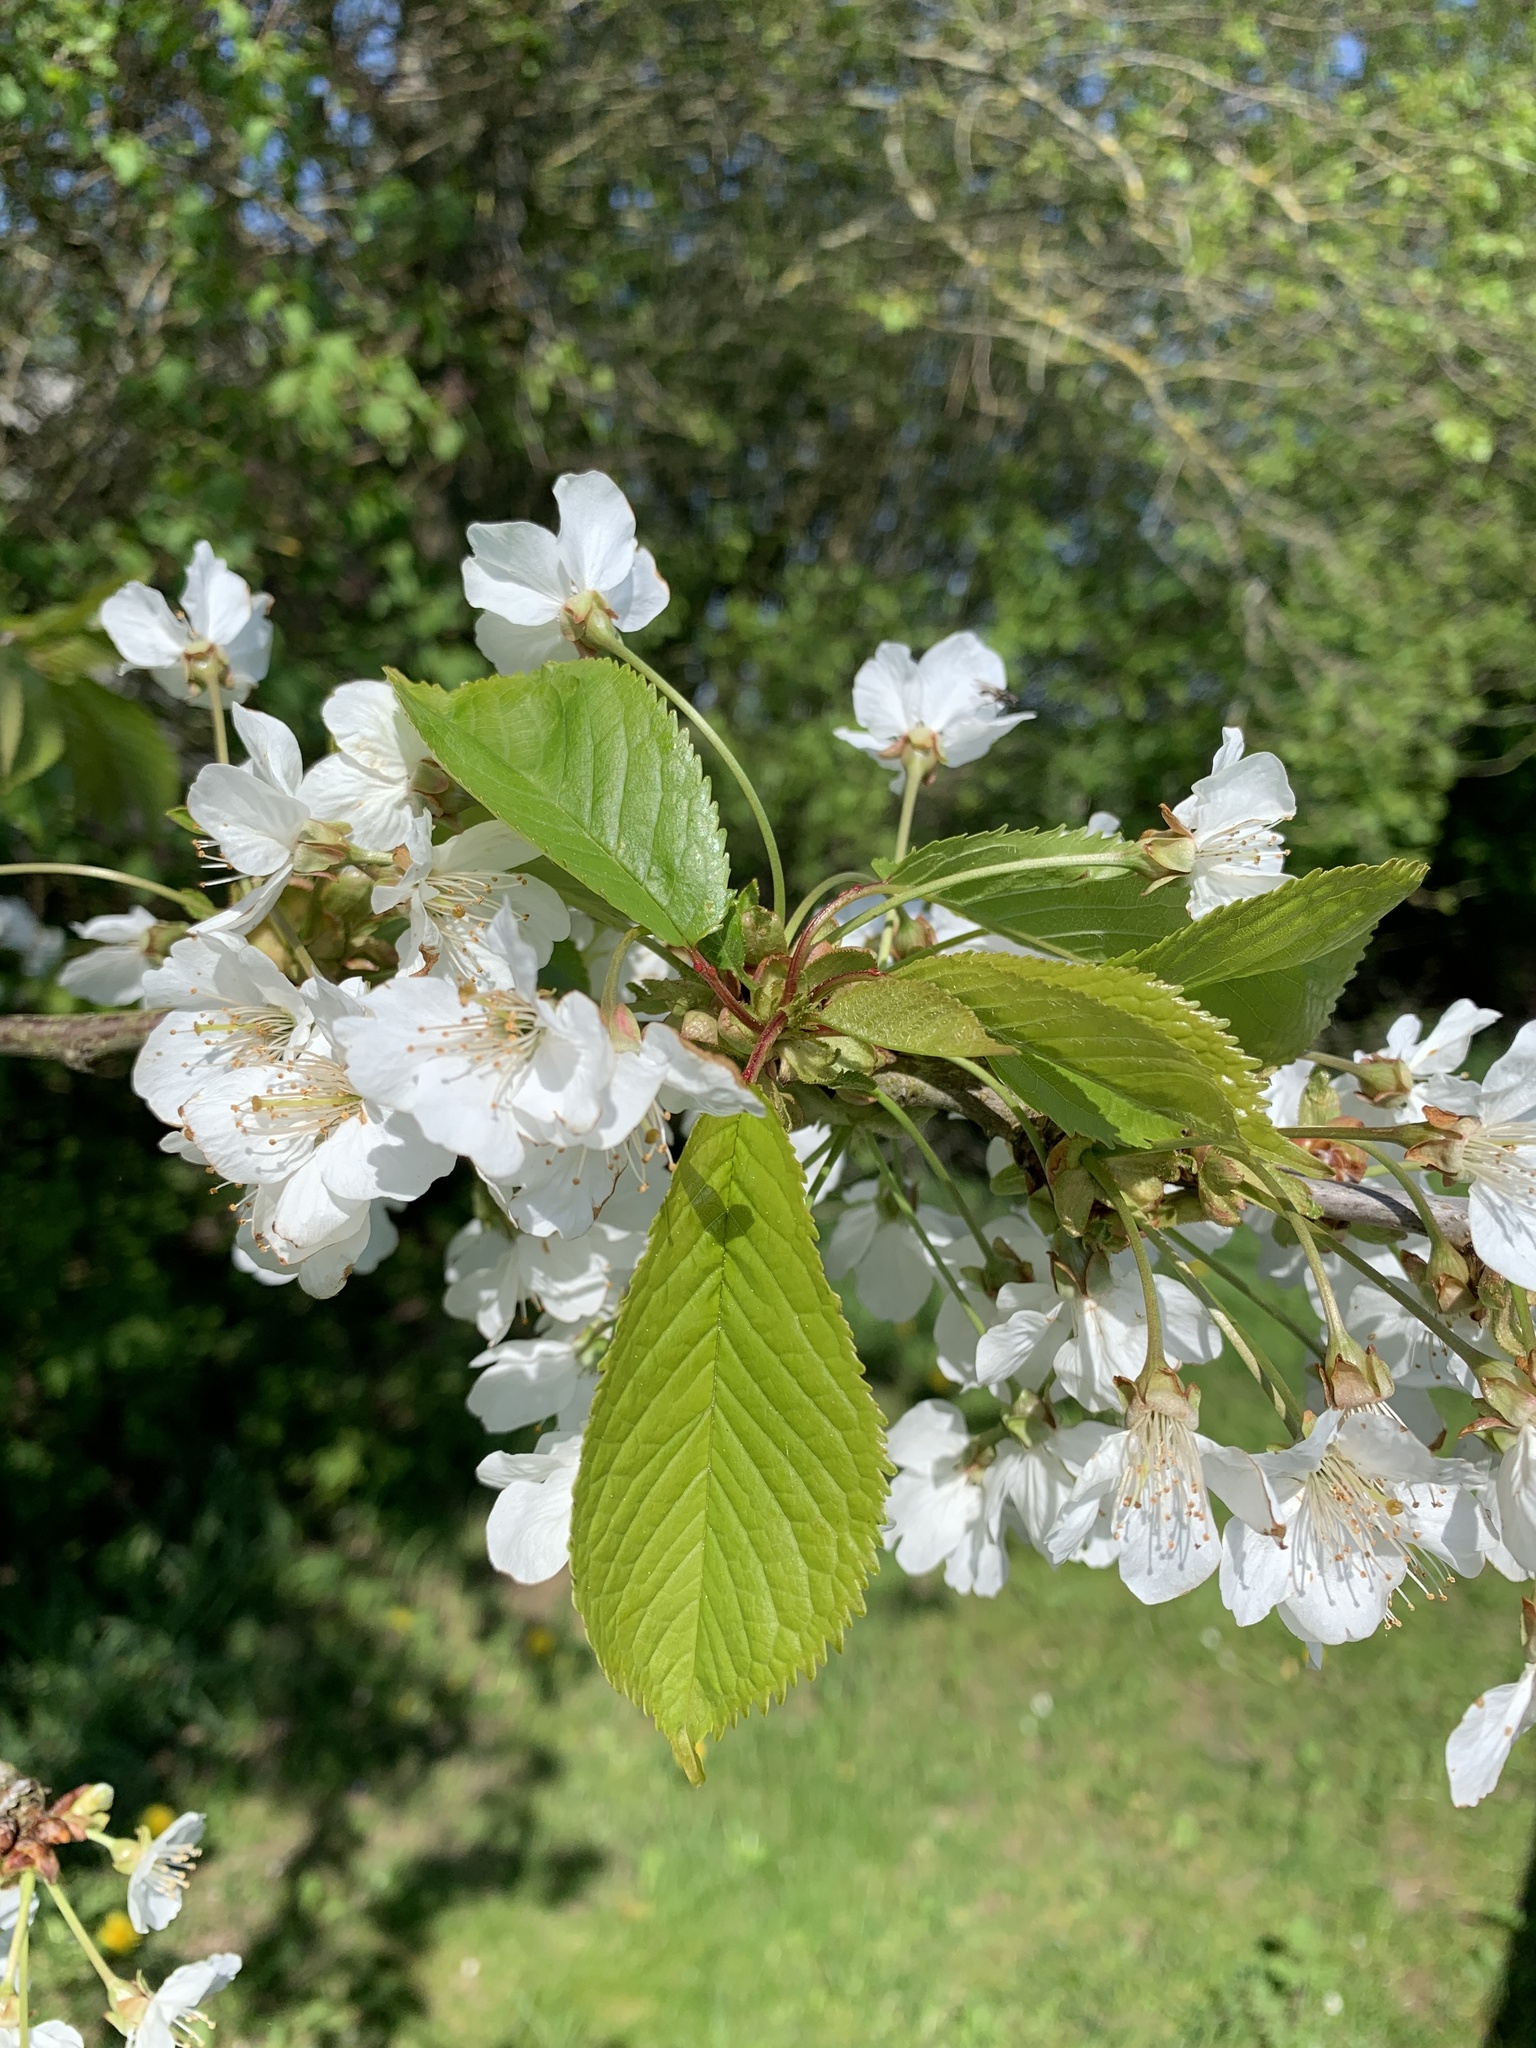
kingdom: Plantae
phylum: Tracheophyta
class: Magnoliopsida
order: Rosales
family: Rosaceae
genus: Prunus
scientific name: Prunus avium
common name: Sweet cherry
